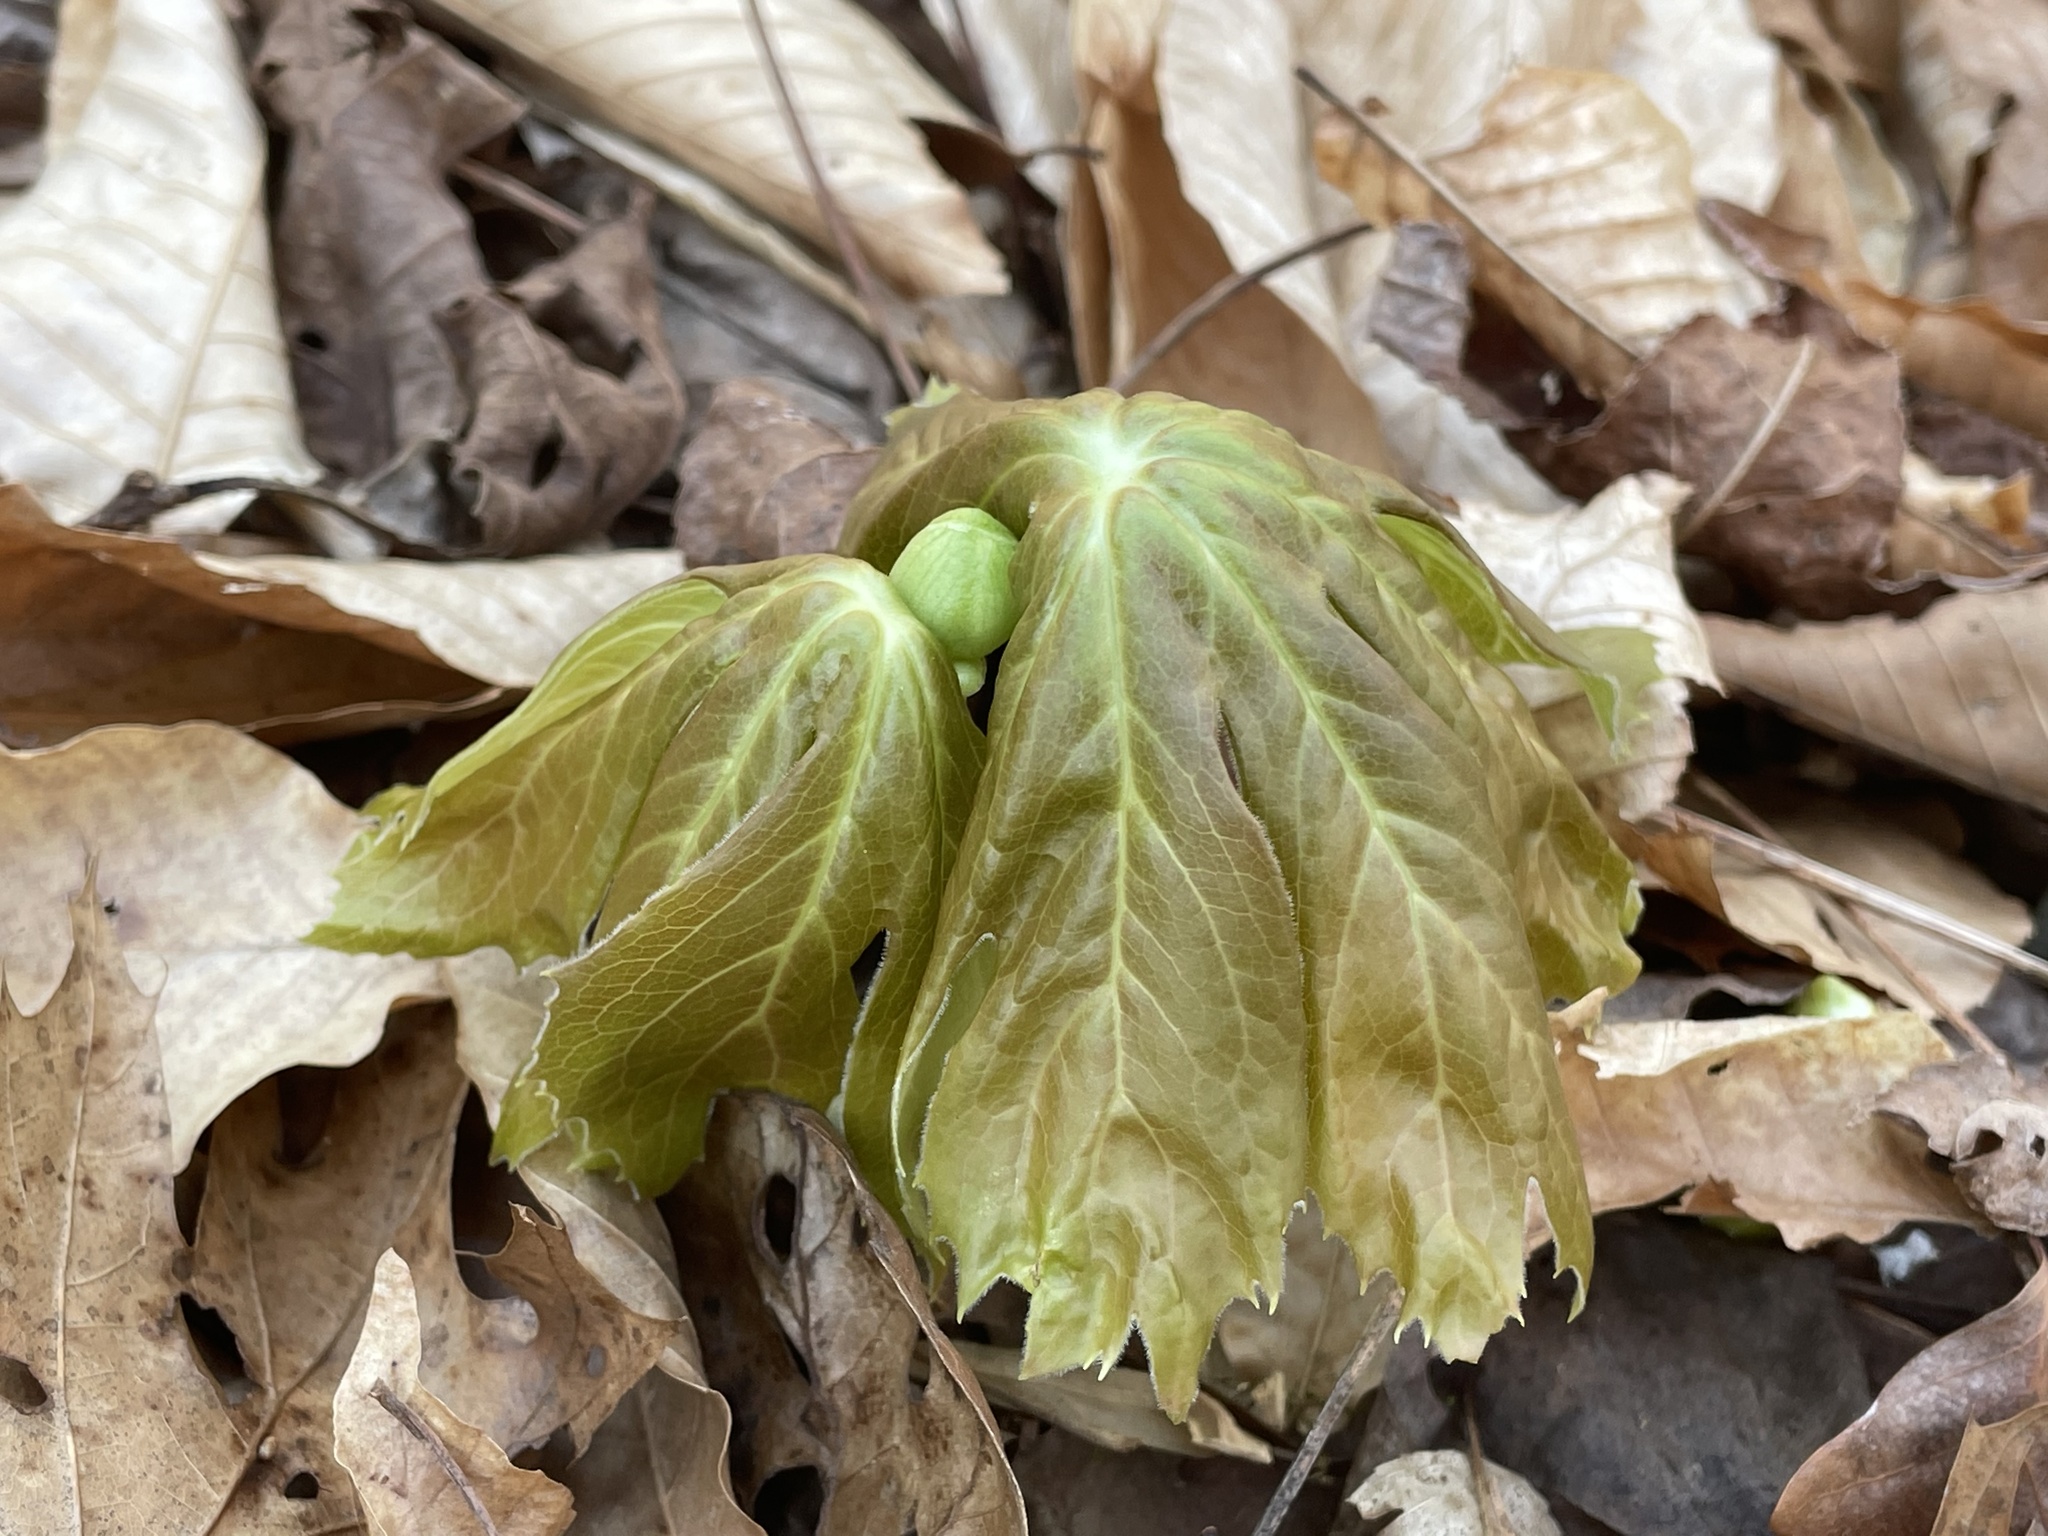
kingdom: Plantae
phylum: Tracheophyta
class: Magnoliopsida
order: Ranunculales
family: Berberidaceae
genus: Podophyllum
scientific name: Podophyllum peltatum
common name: Wild mandrake
